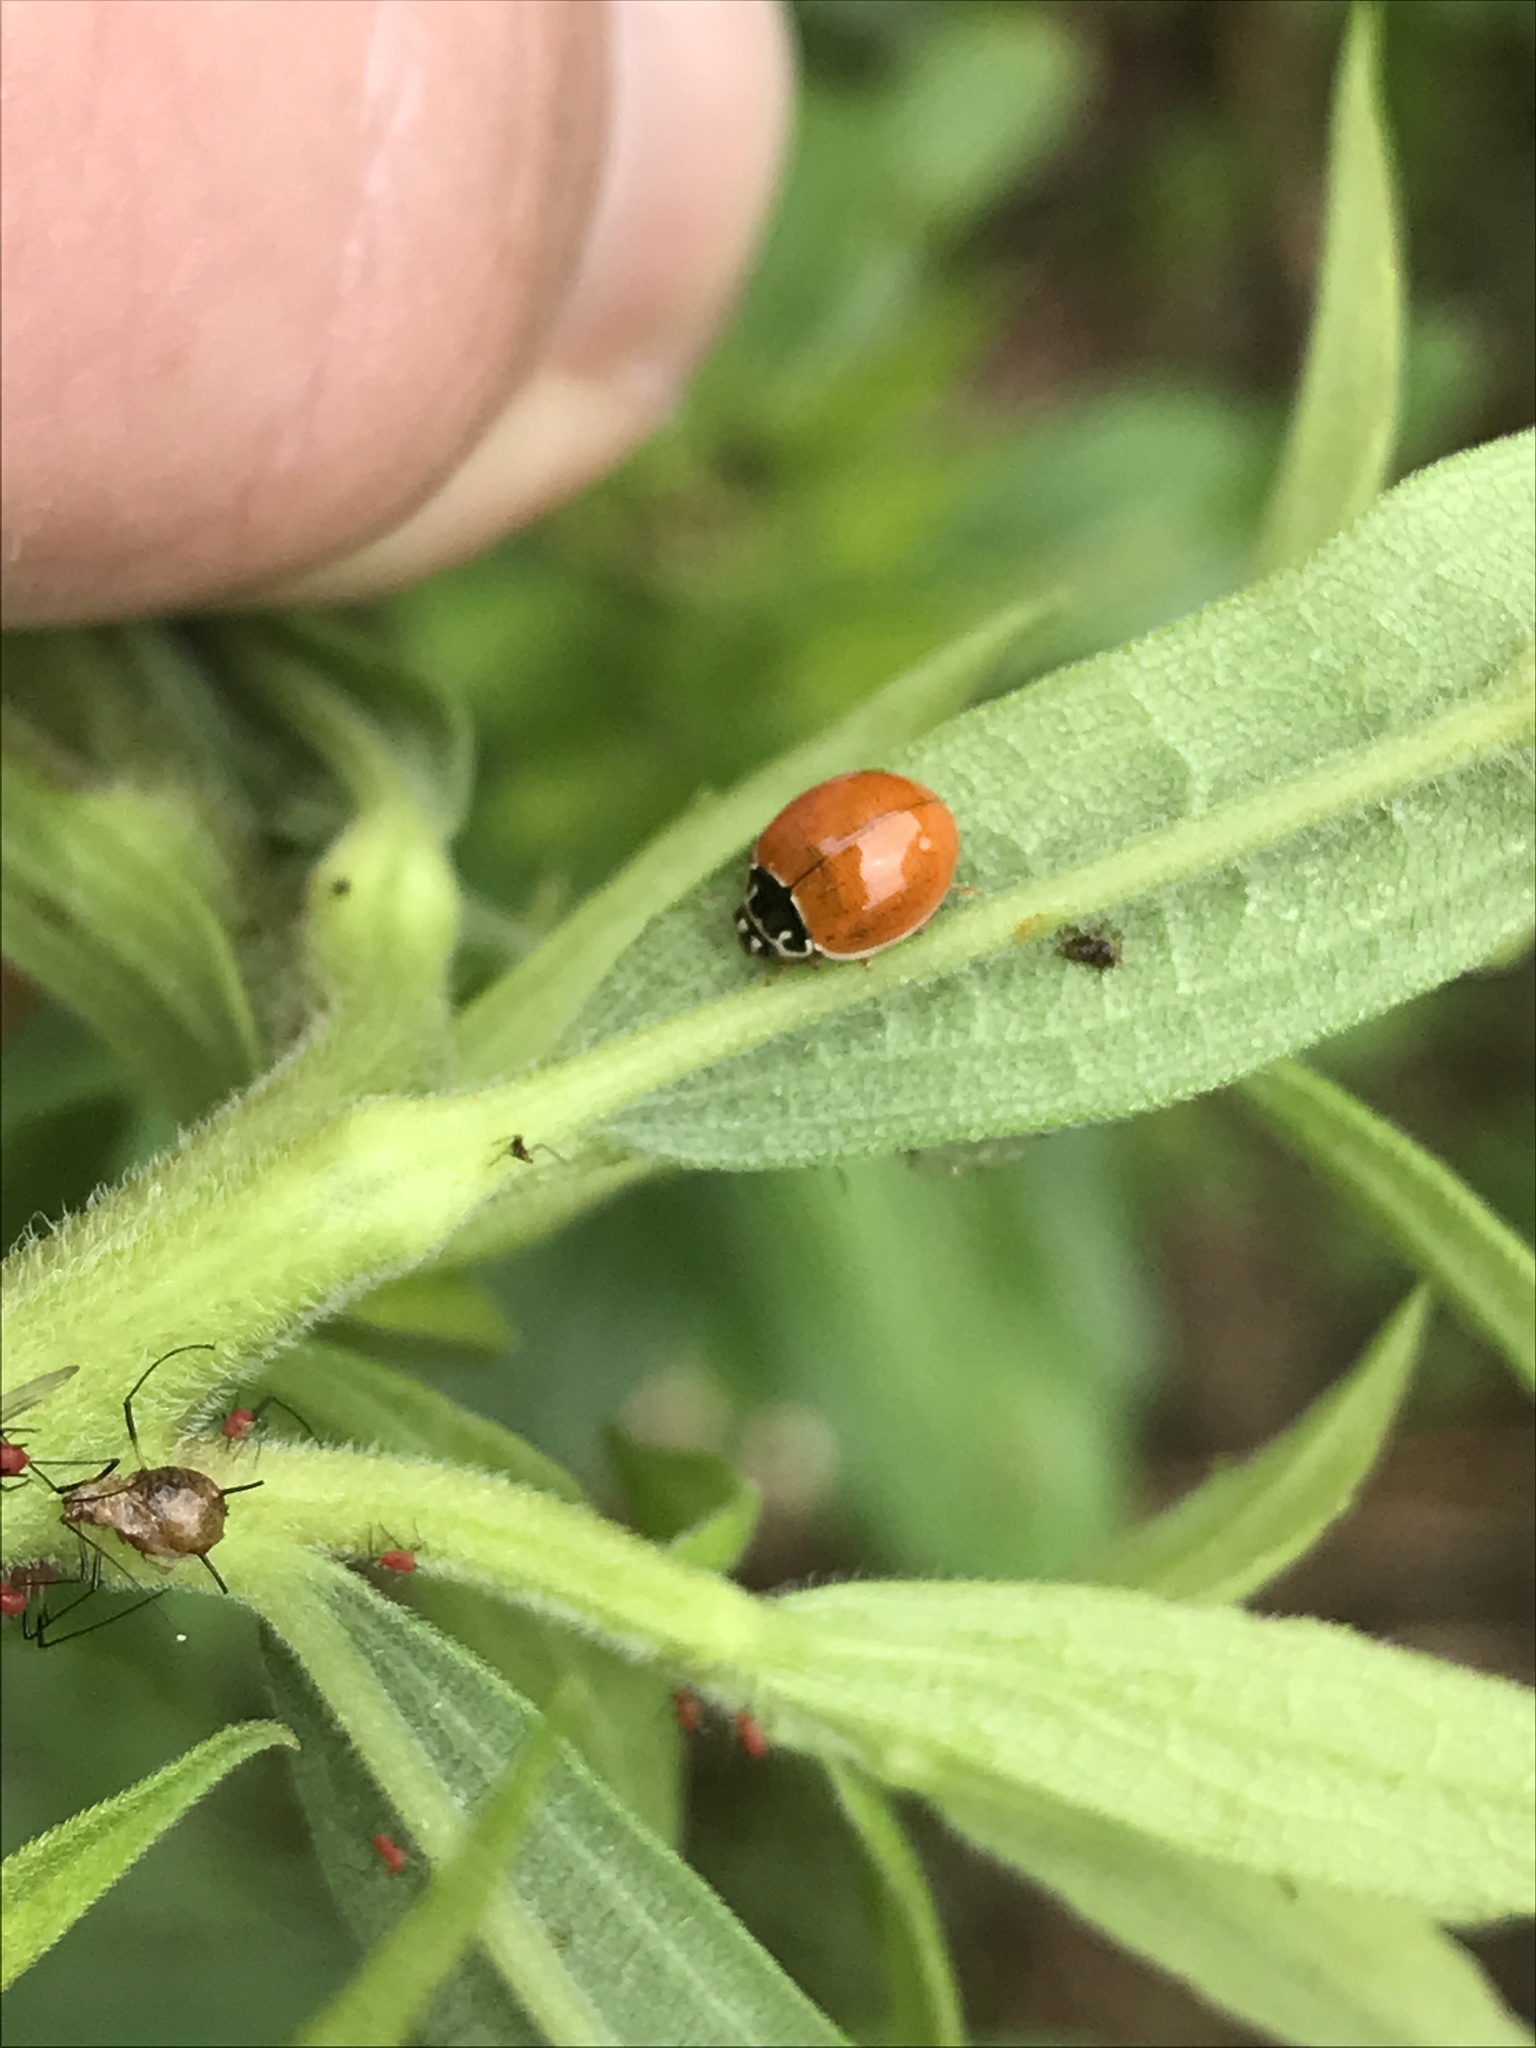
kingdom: Animalia
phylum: Arthropoda
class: Insecta
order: Coleoptera
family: Coccinellidae
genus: Cycloneda
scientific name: Cycloneda munda
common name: Polished lady beetle
